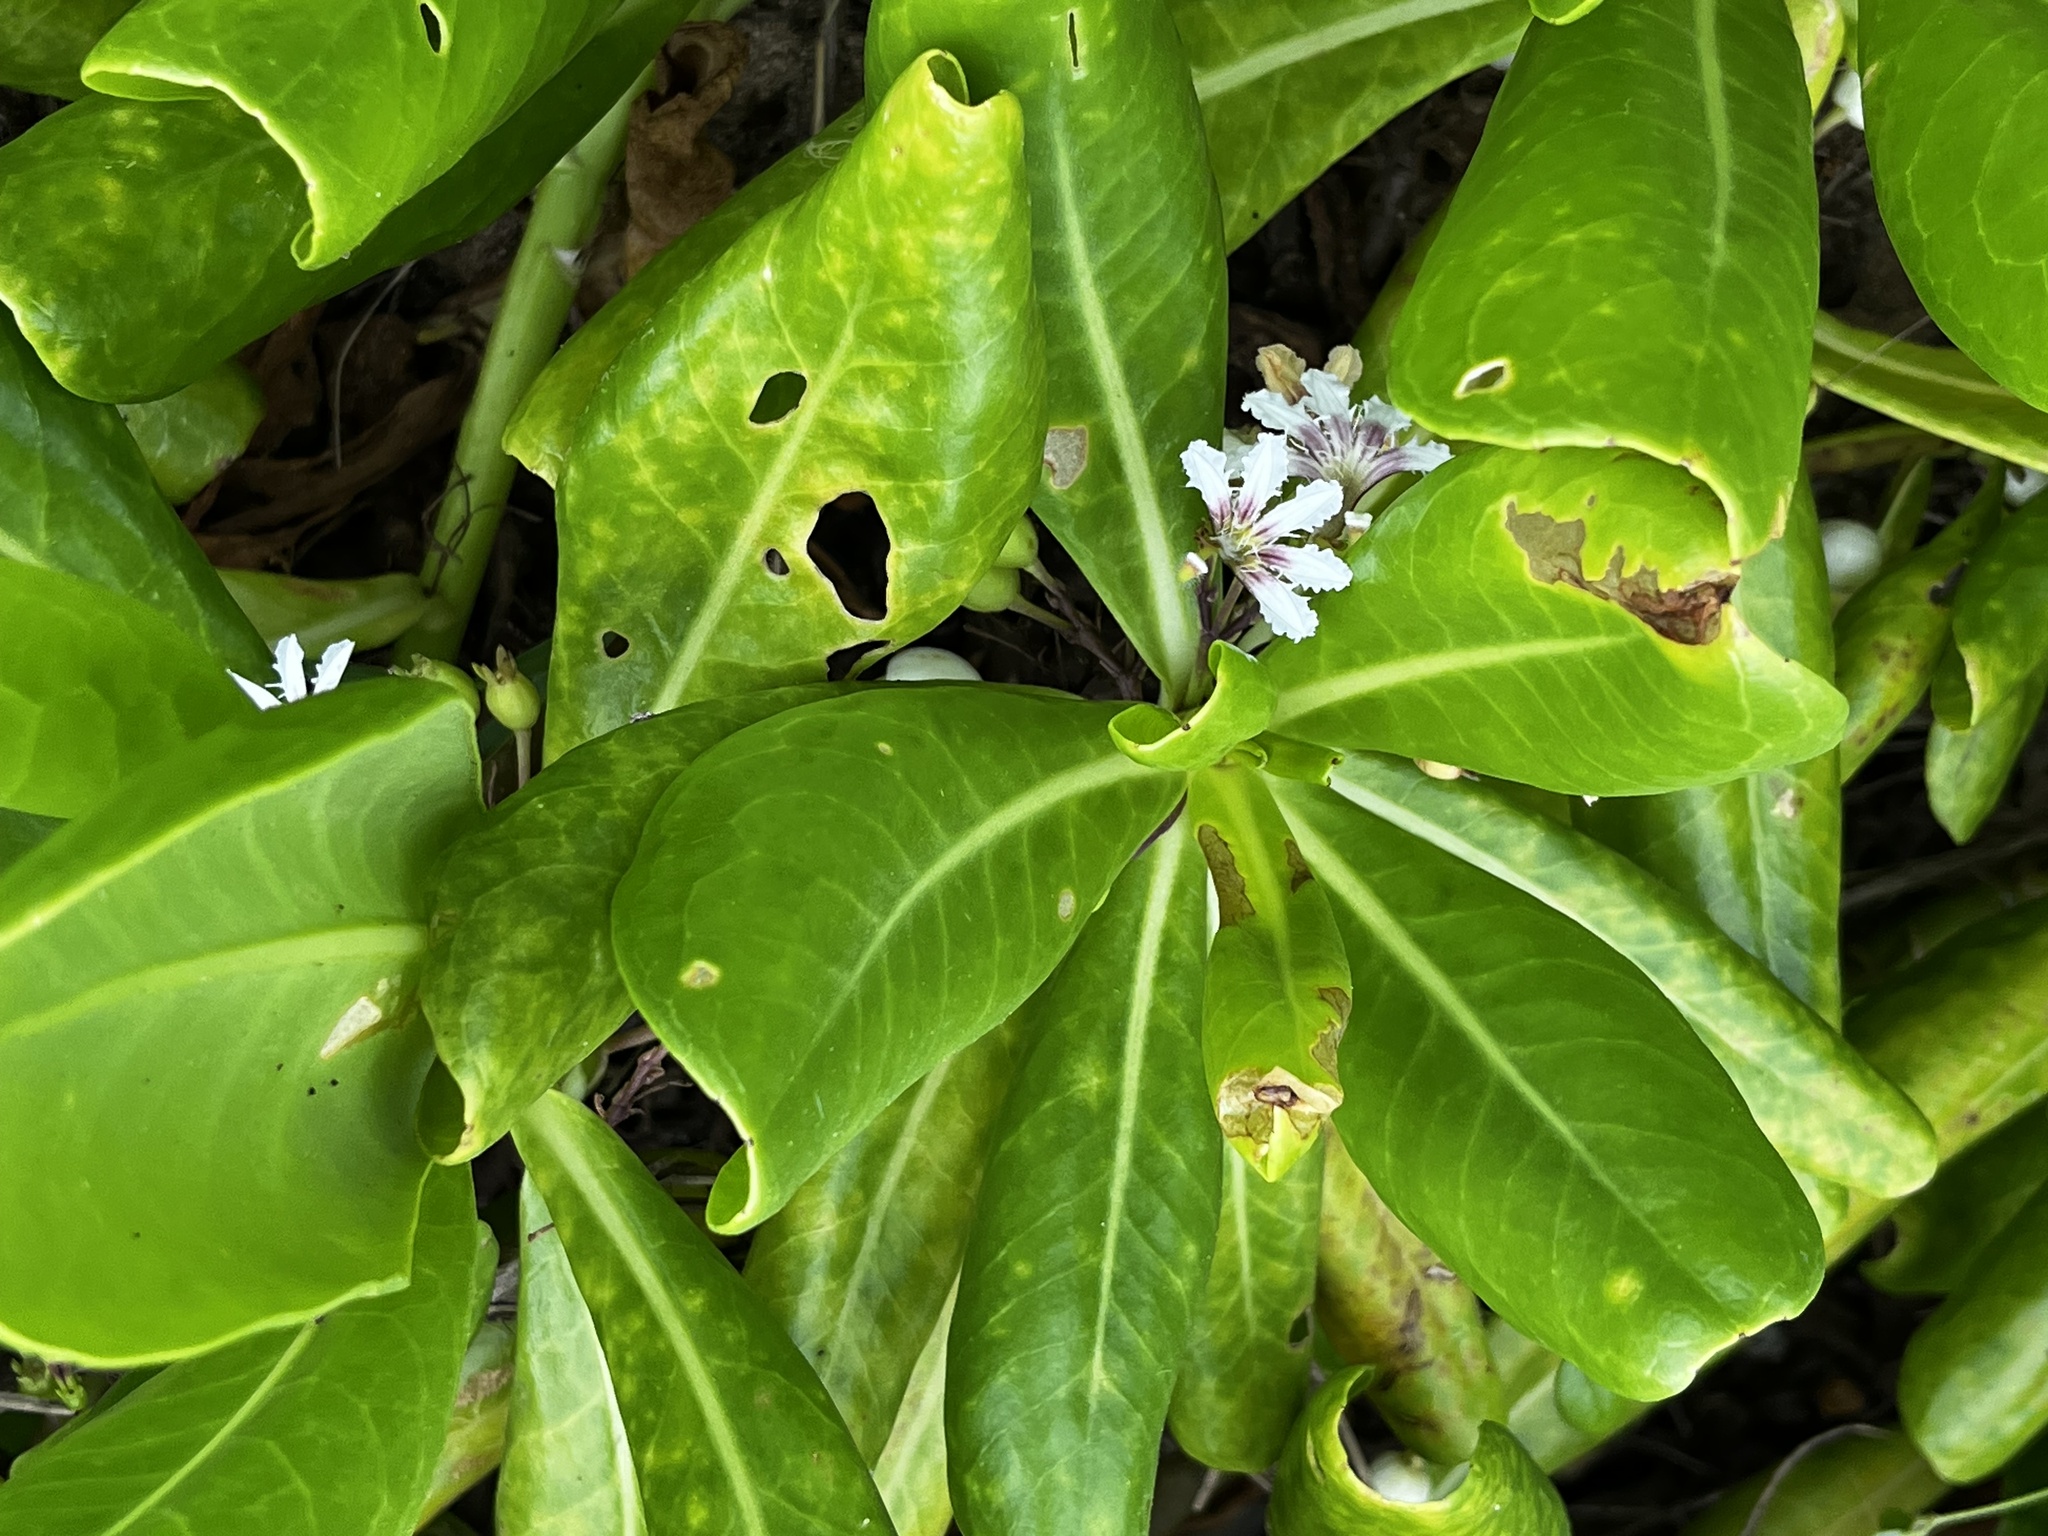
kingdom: Plantae
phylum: Tracheophyta
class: Magnoliopsida
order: Asterales
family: Goodeniaceae
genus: Scaevola
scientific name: Scaevola taccada
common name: Sea lettucetree
